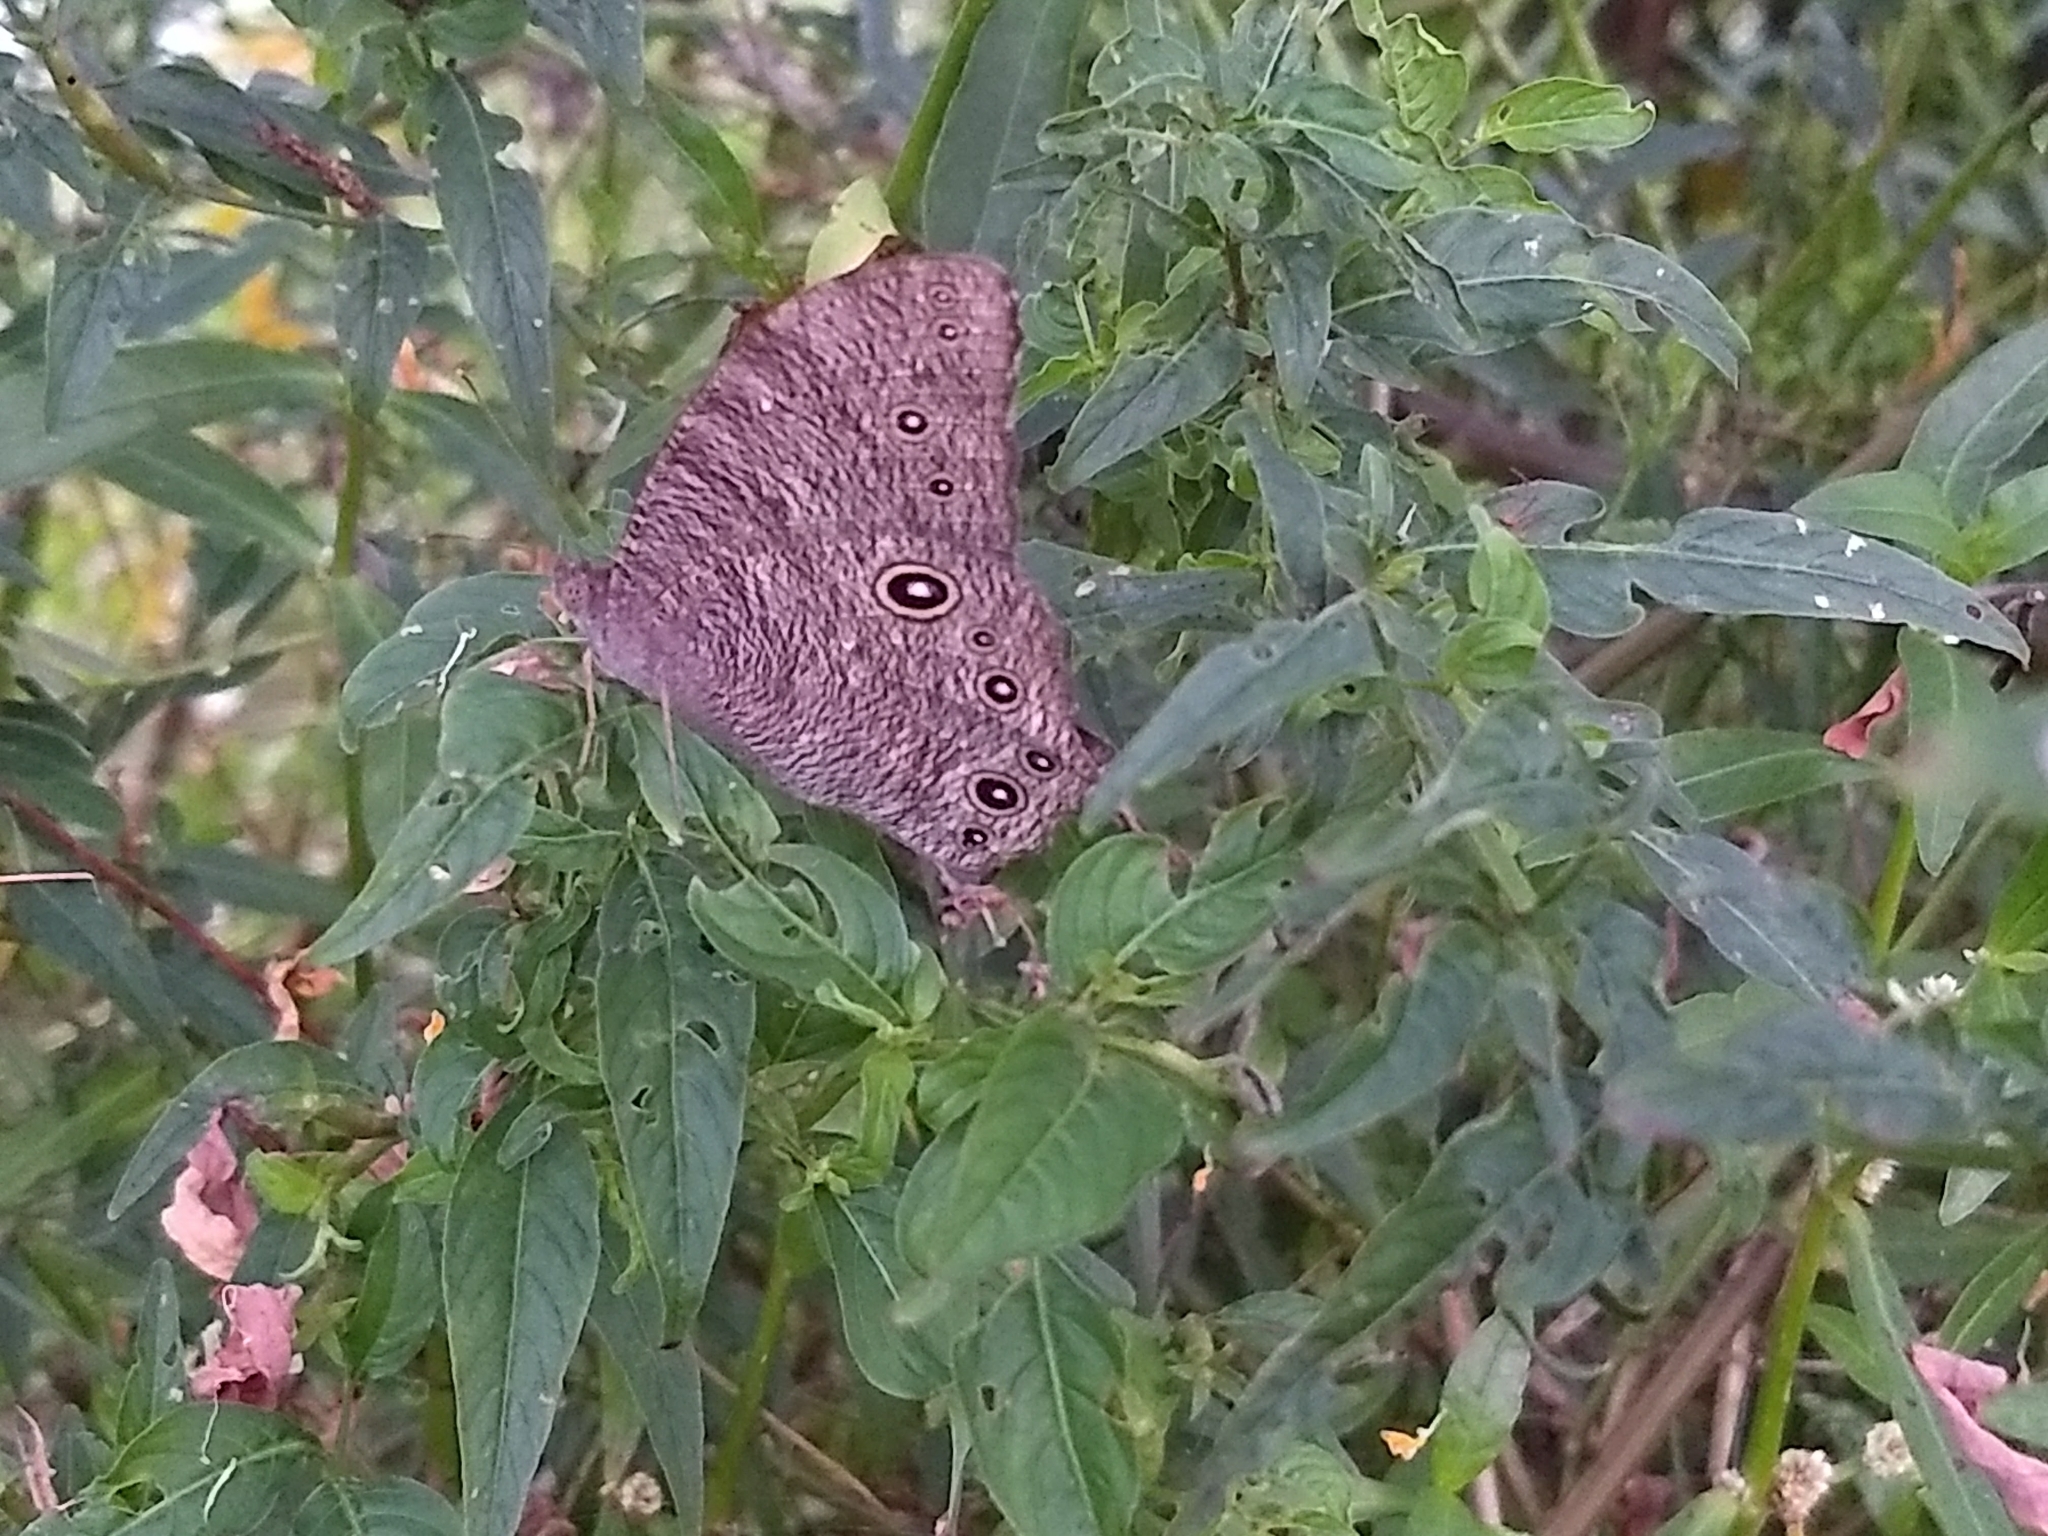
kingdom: Animalia
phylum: Arthropoda
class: Insecta
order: Lepidoptera
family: Nymphalidae
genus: Melanitis
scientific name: Melanitis leda
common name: Twilight brown
